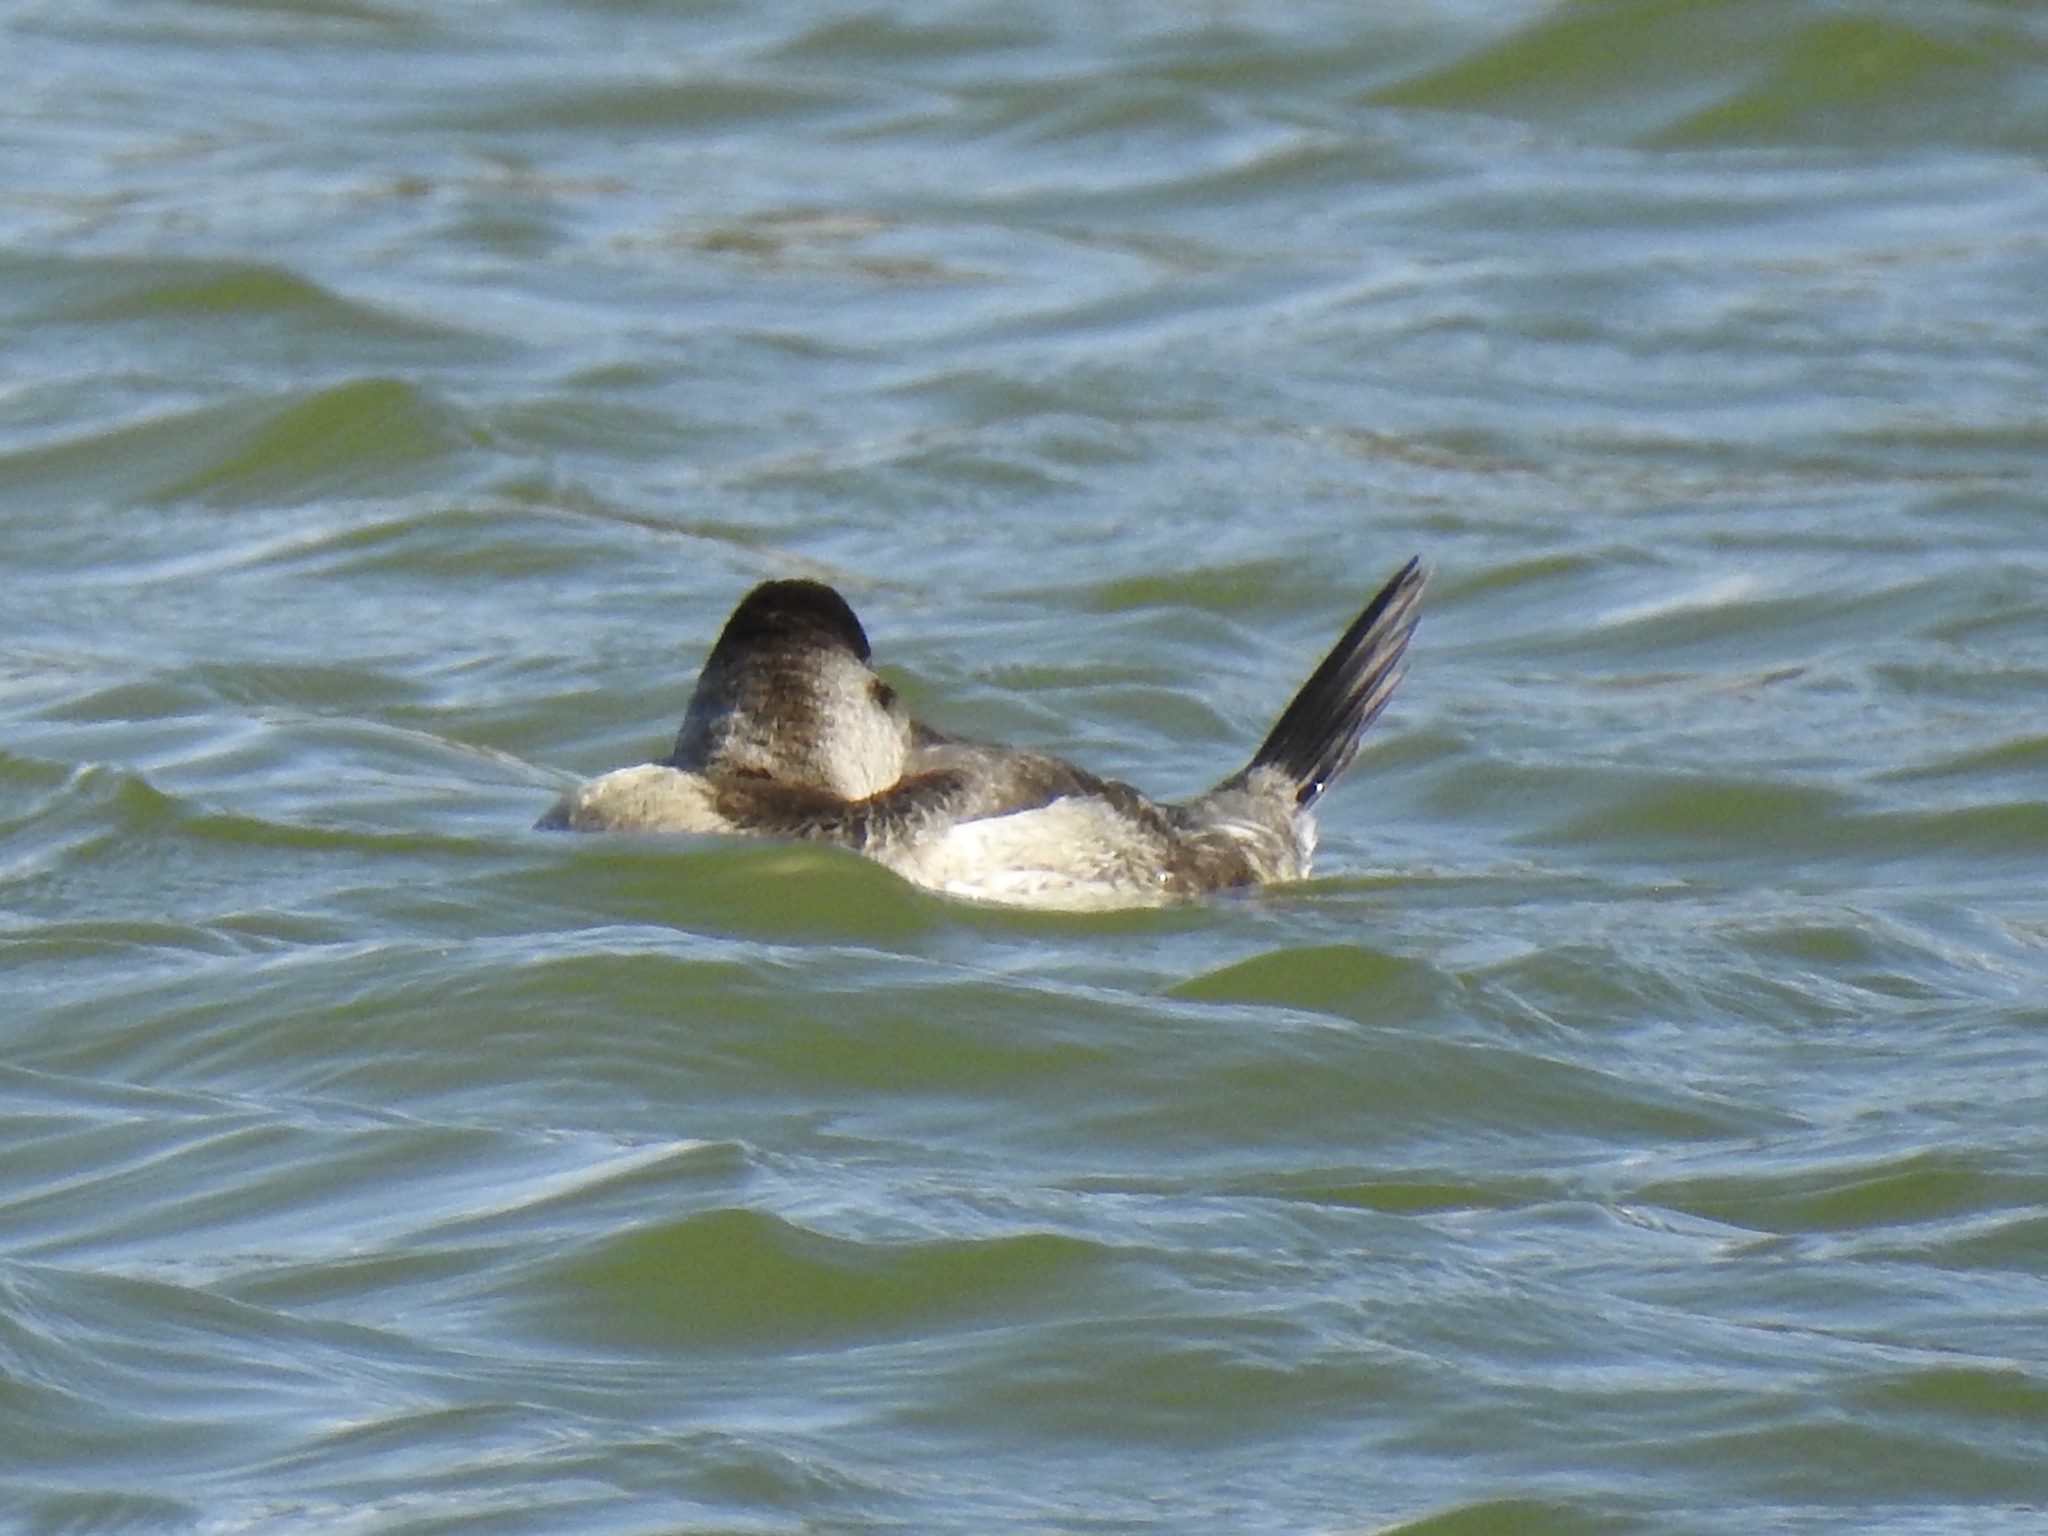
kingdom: Animalia
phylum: Chordata
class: Aves
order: Anseriformes
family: Anatidae
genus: Oxyura
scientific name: Oxyura jamaicensis
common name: Ruddy duck
